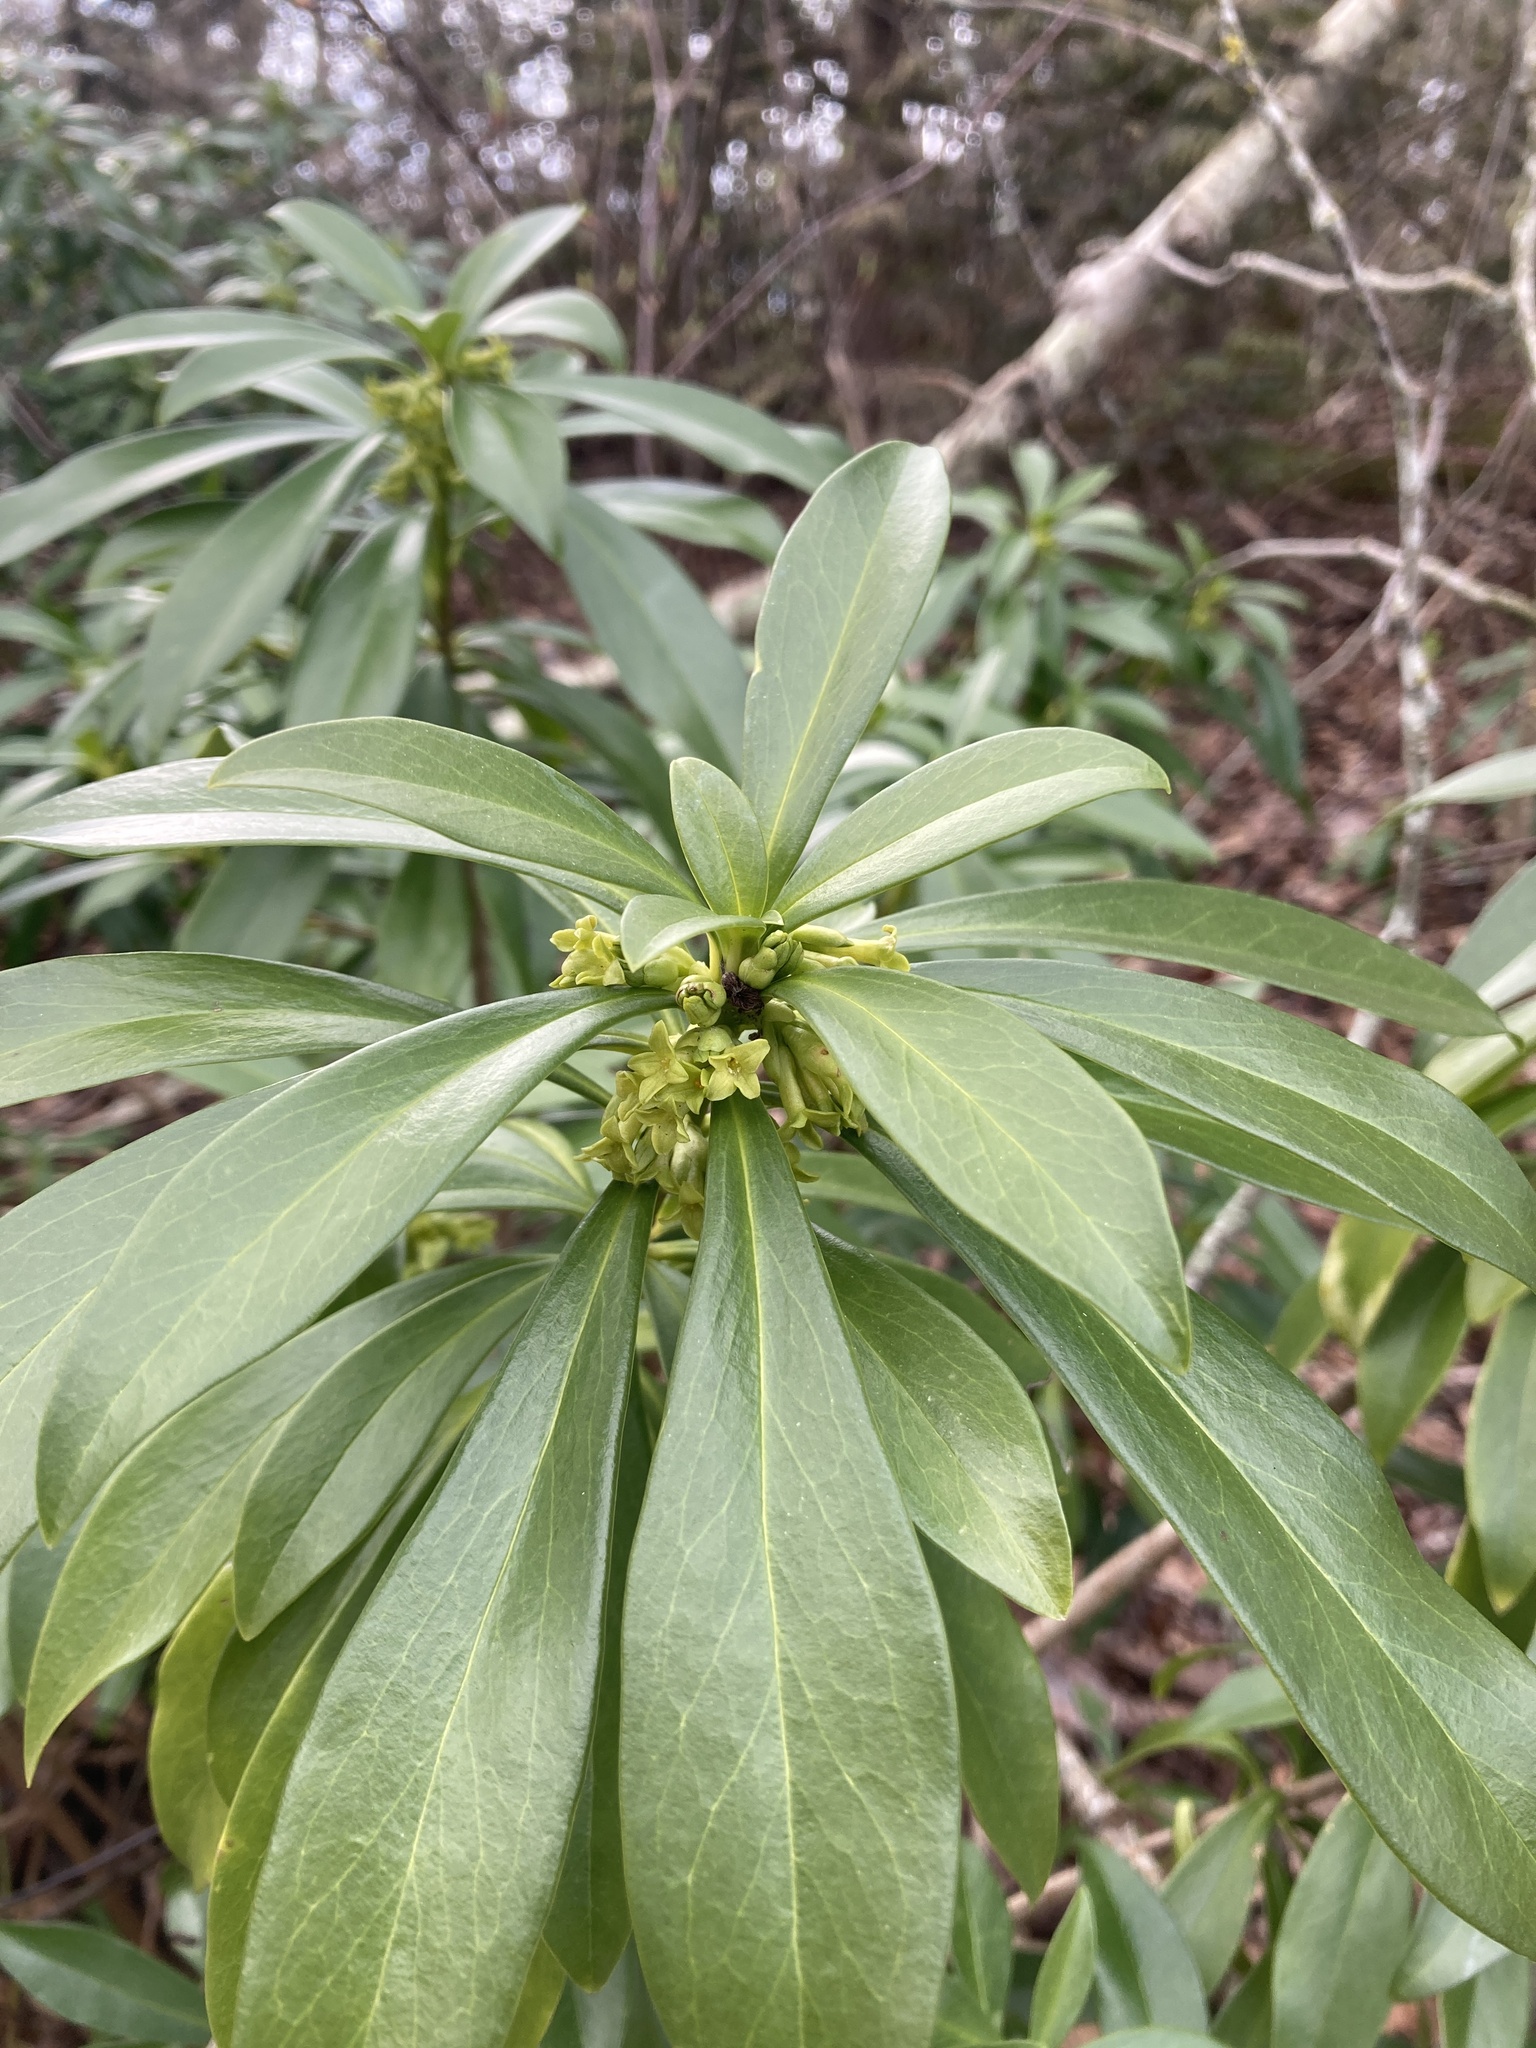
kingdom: Plantae
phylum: Tracheophyta
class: Magnoliopsida
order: Malvales
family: Thymelaeaceae
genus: Daphne
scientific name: Daphne laureola
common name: Spurge-laurel
